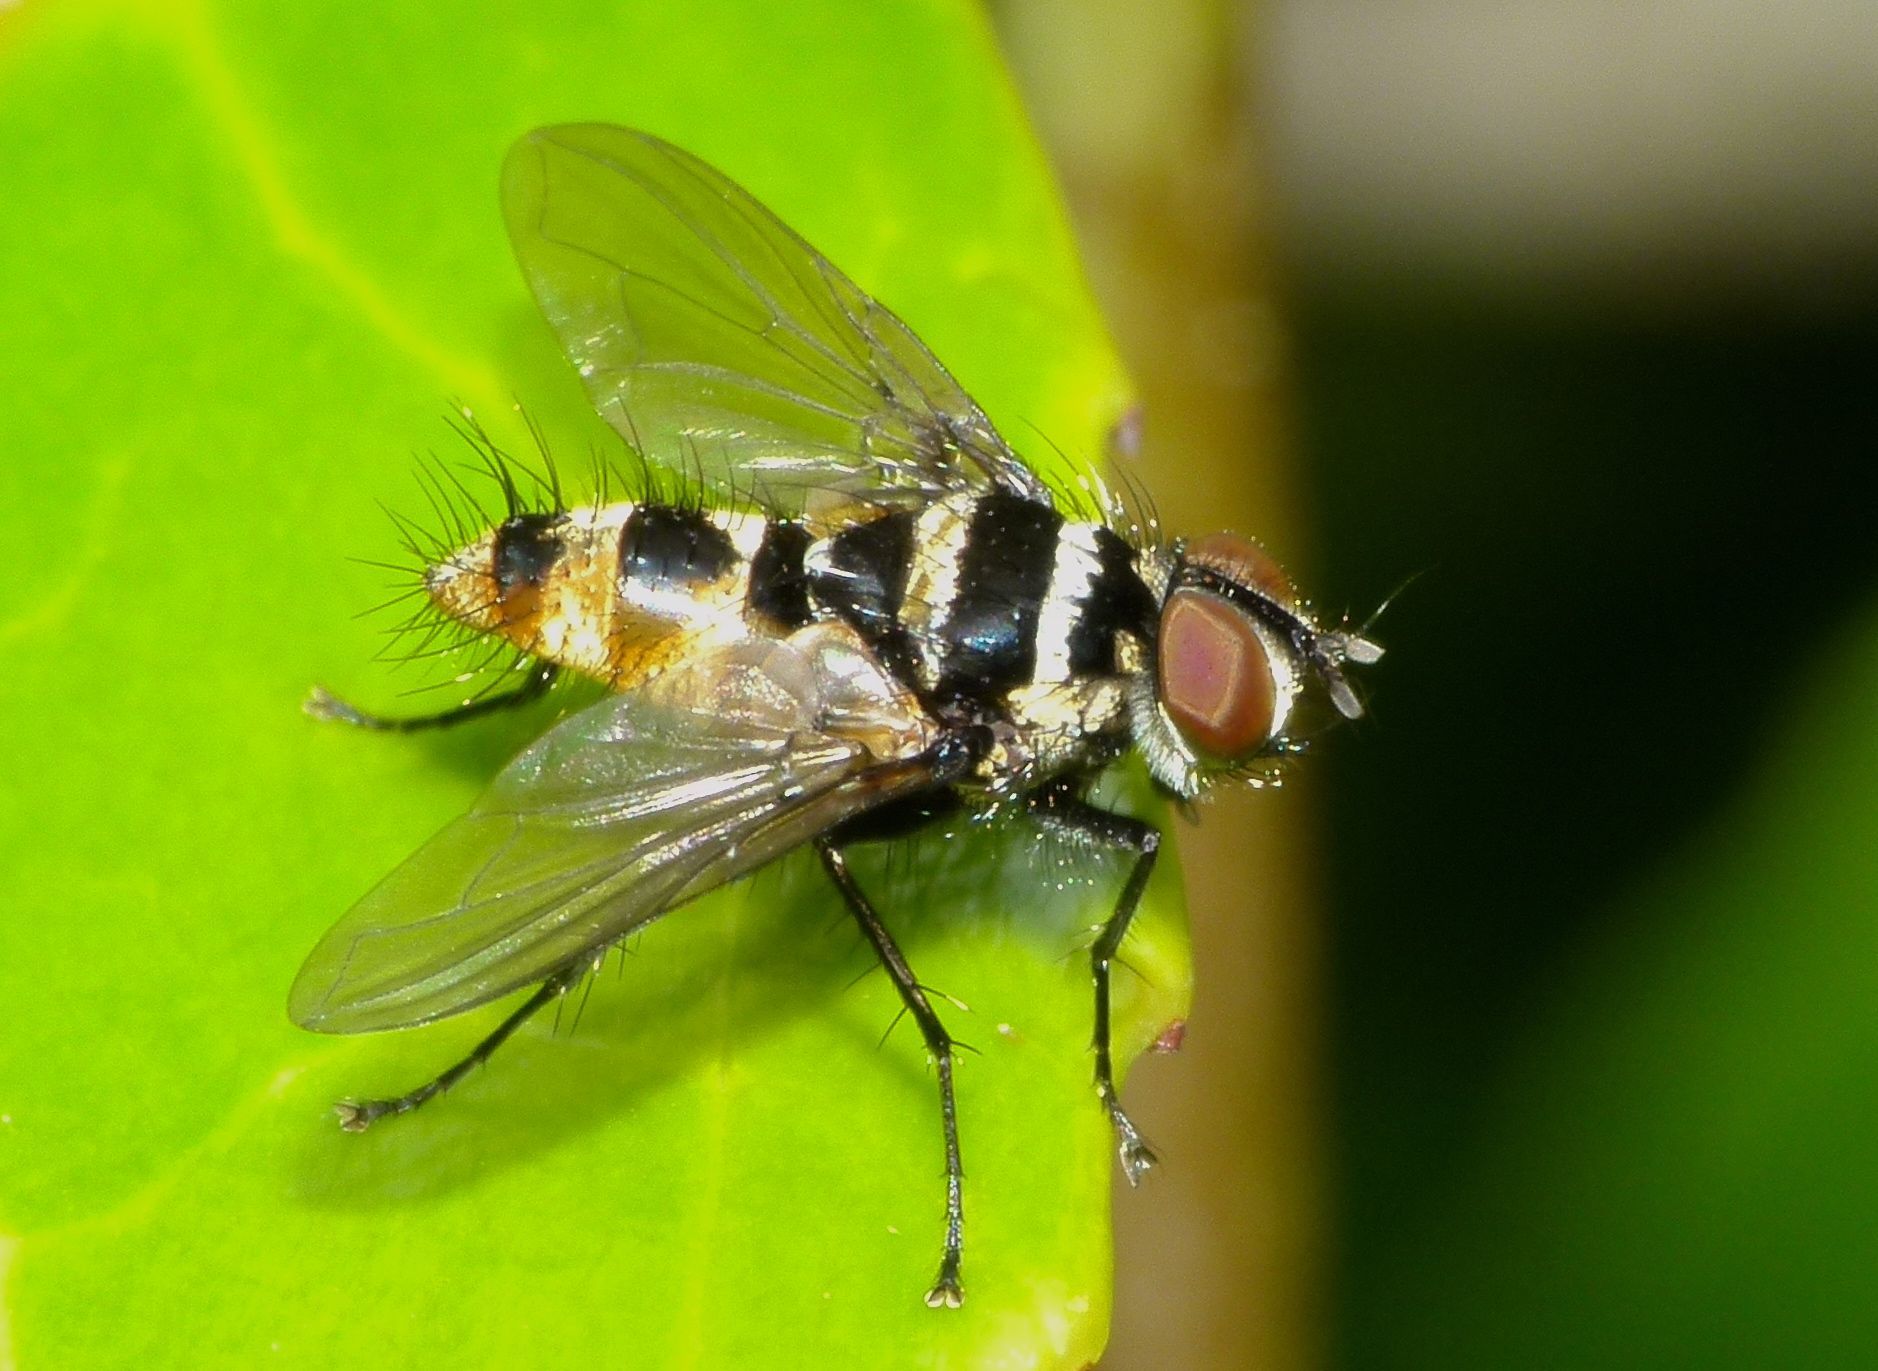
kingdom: Animalia
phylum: Arthropoda
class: Insecta
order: Diptera
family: Tachinidae
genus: Trigonospila
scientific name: Trigonospila brevifacies
